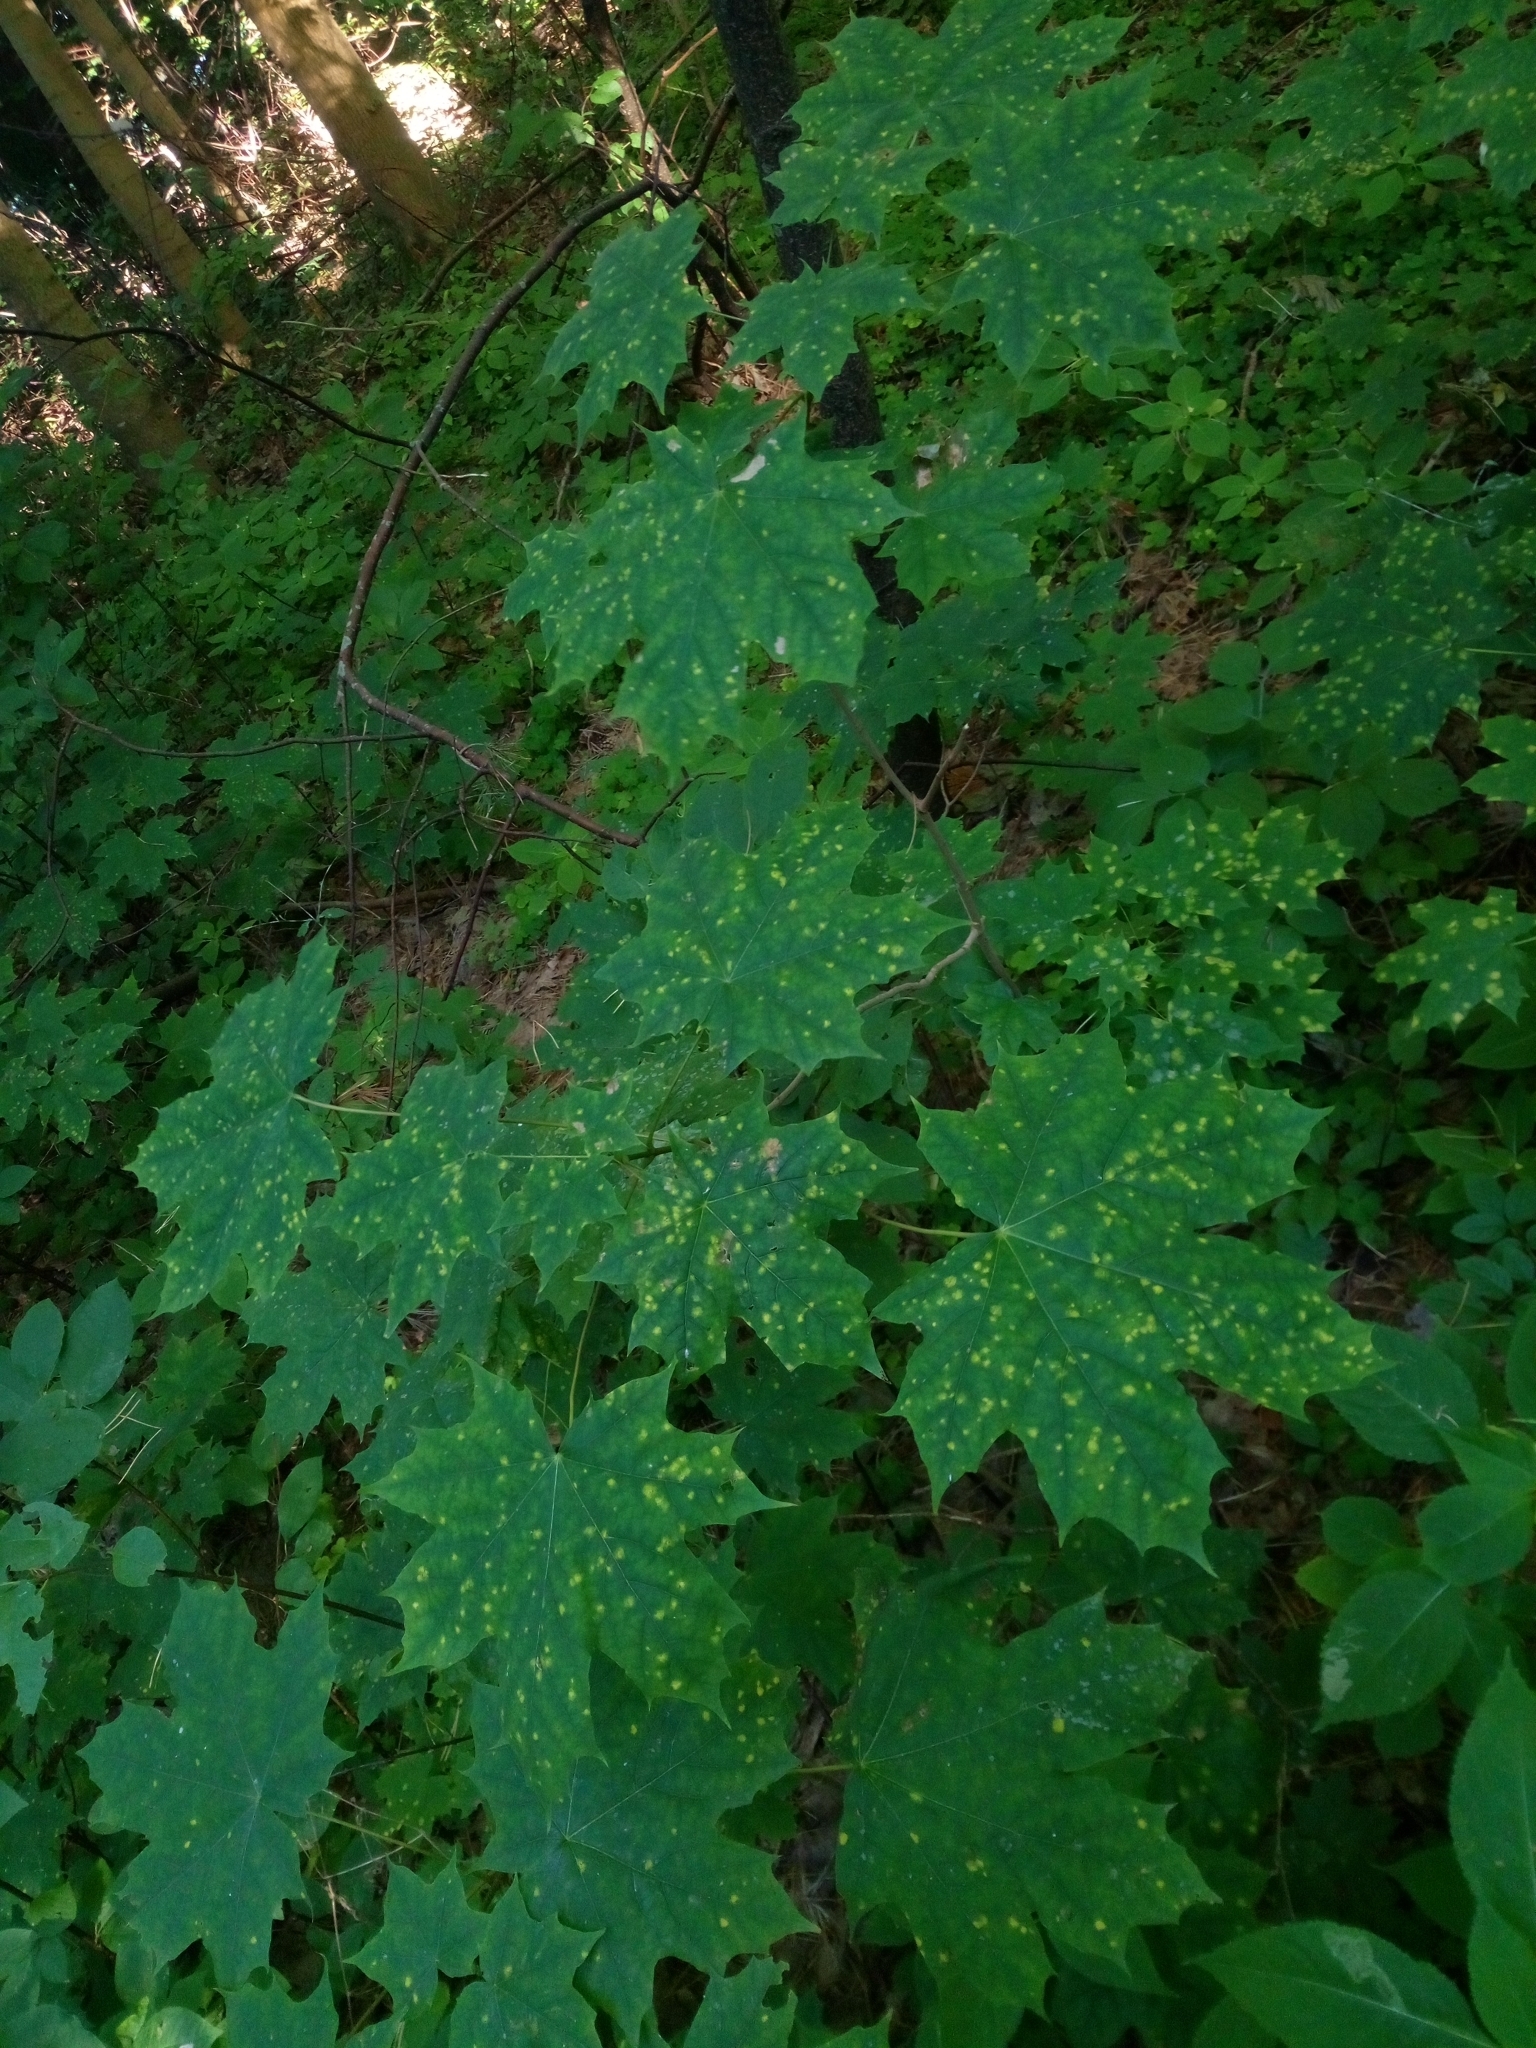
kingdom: Plantae
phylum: Tracheophyta
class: Magnoliopsida
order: Sapindales
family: Sapindaceae
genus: Acer
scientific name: Acer platanoides
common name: Norway maple
